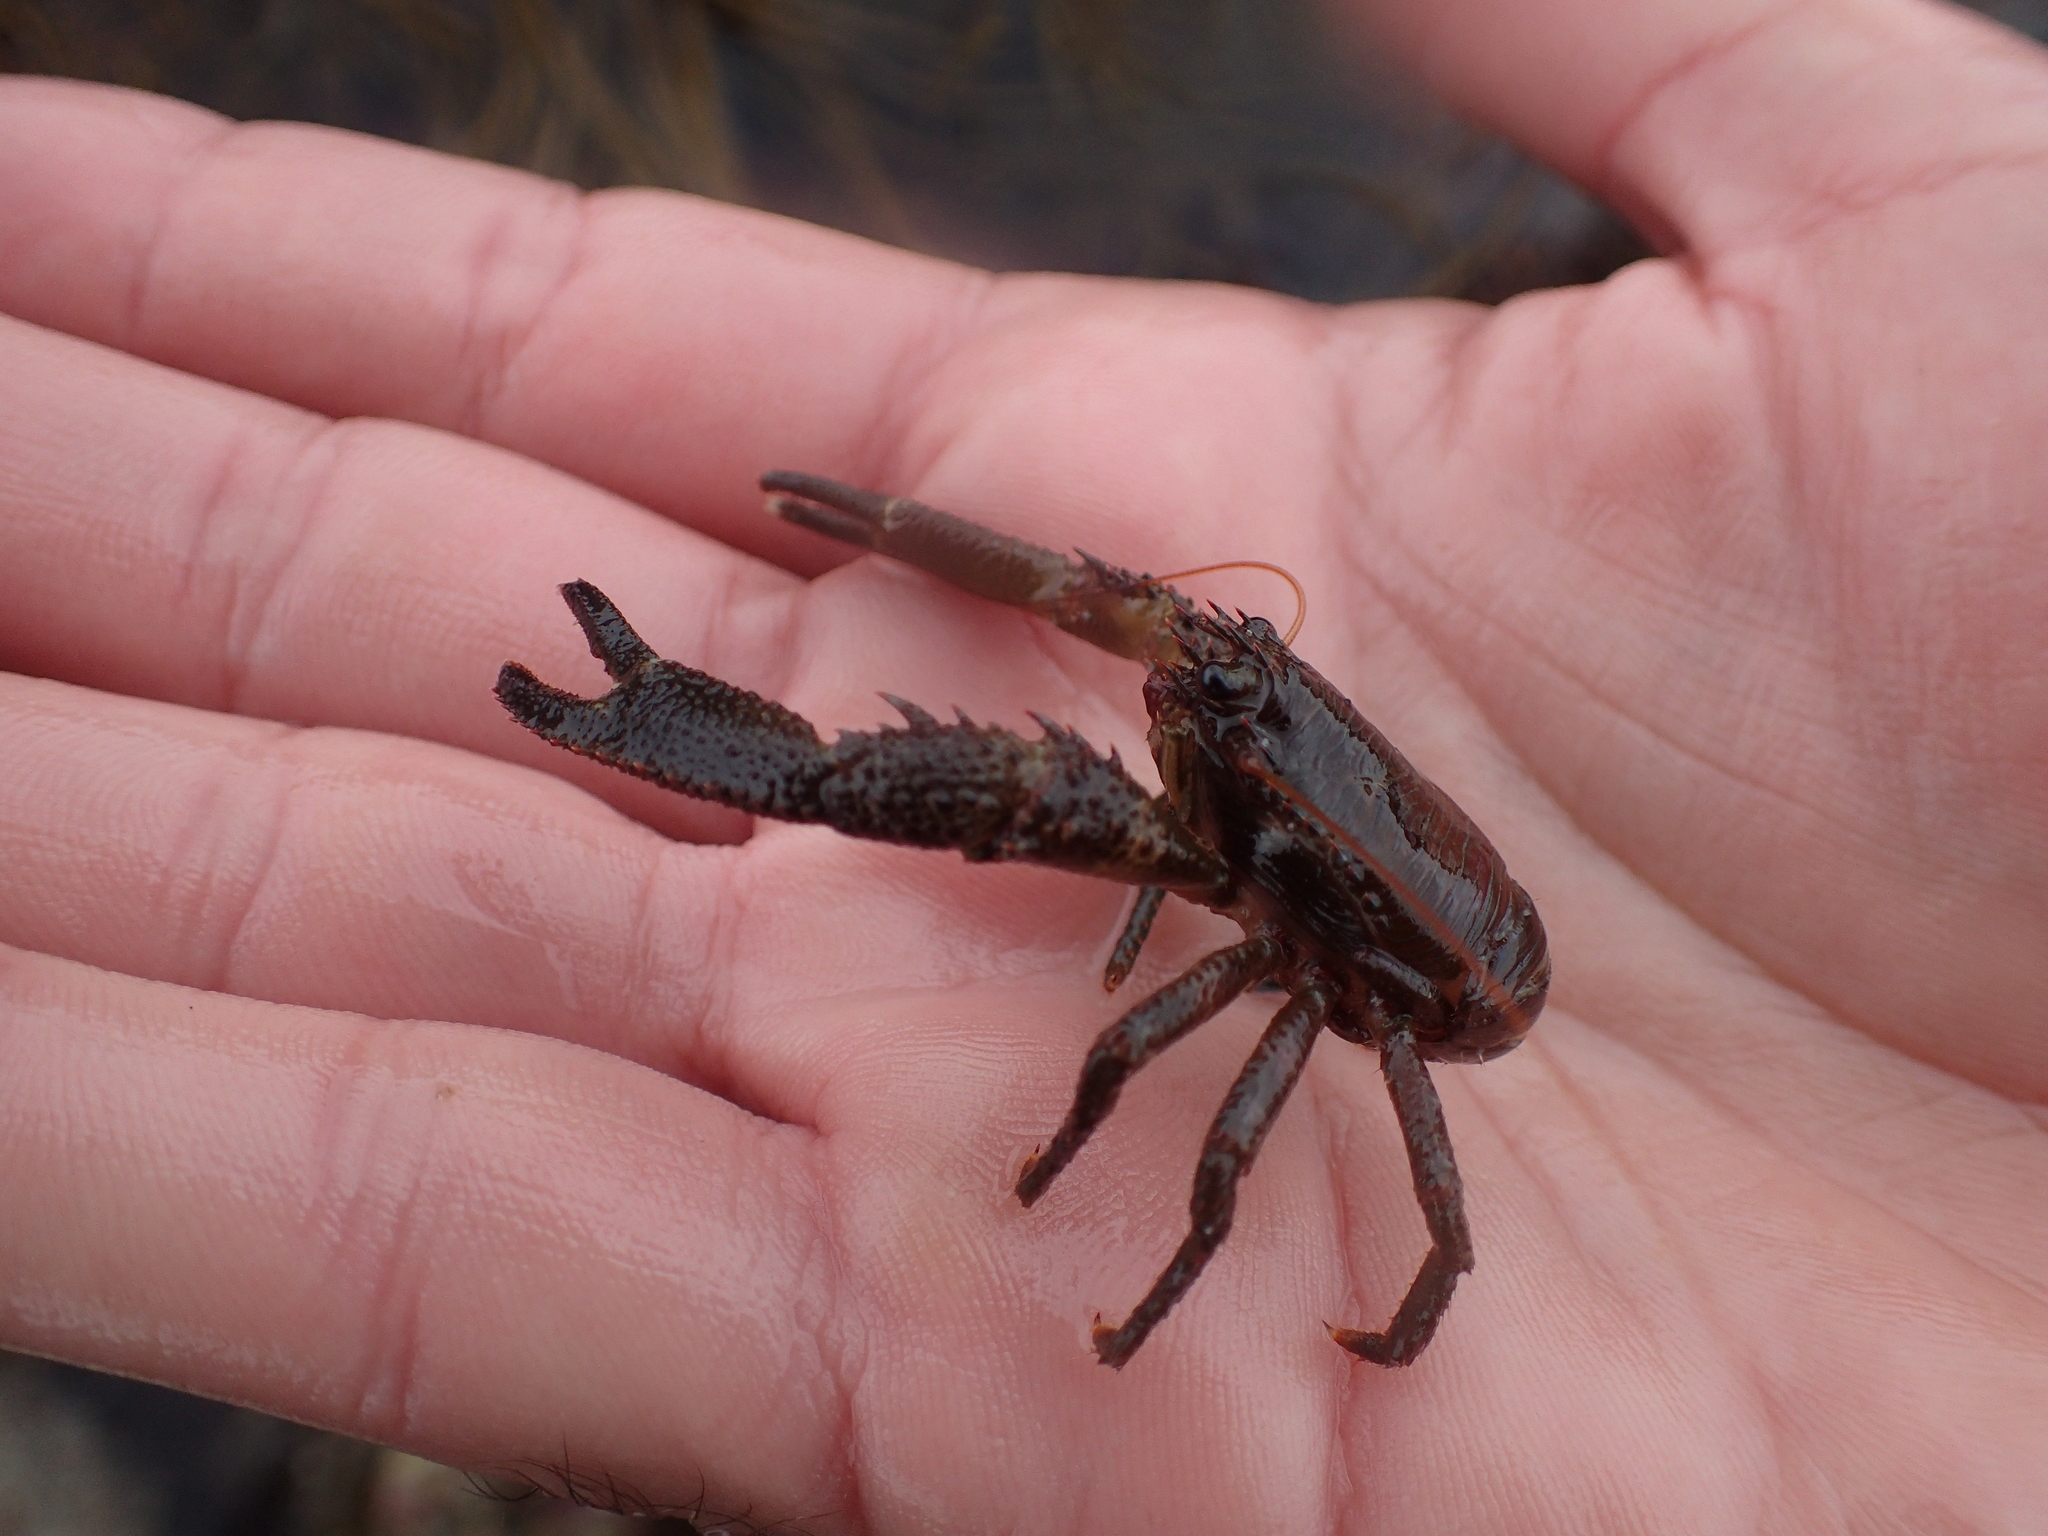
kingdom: Animalia
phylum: Arthropoda
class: Malacostraca
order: Decapoda
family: Galatheidae
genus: Galathea
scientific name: Galathea squamifera
